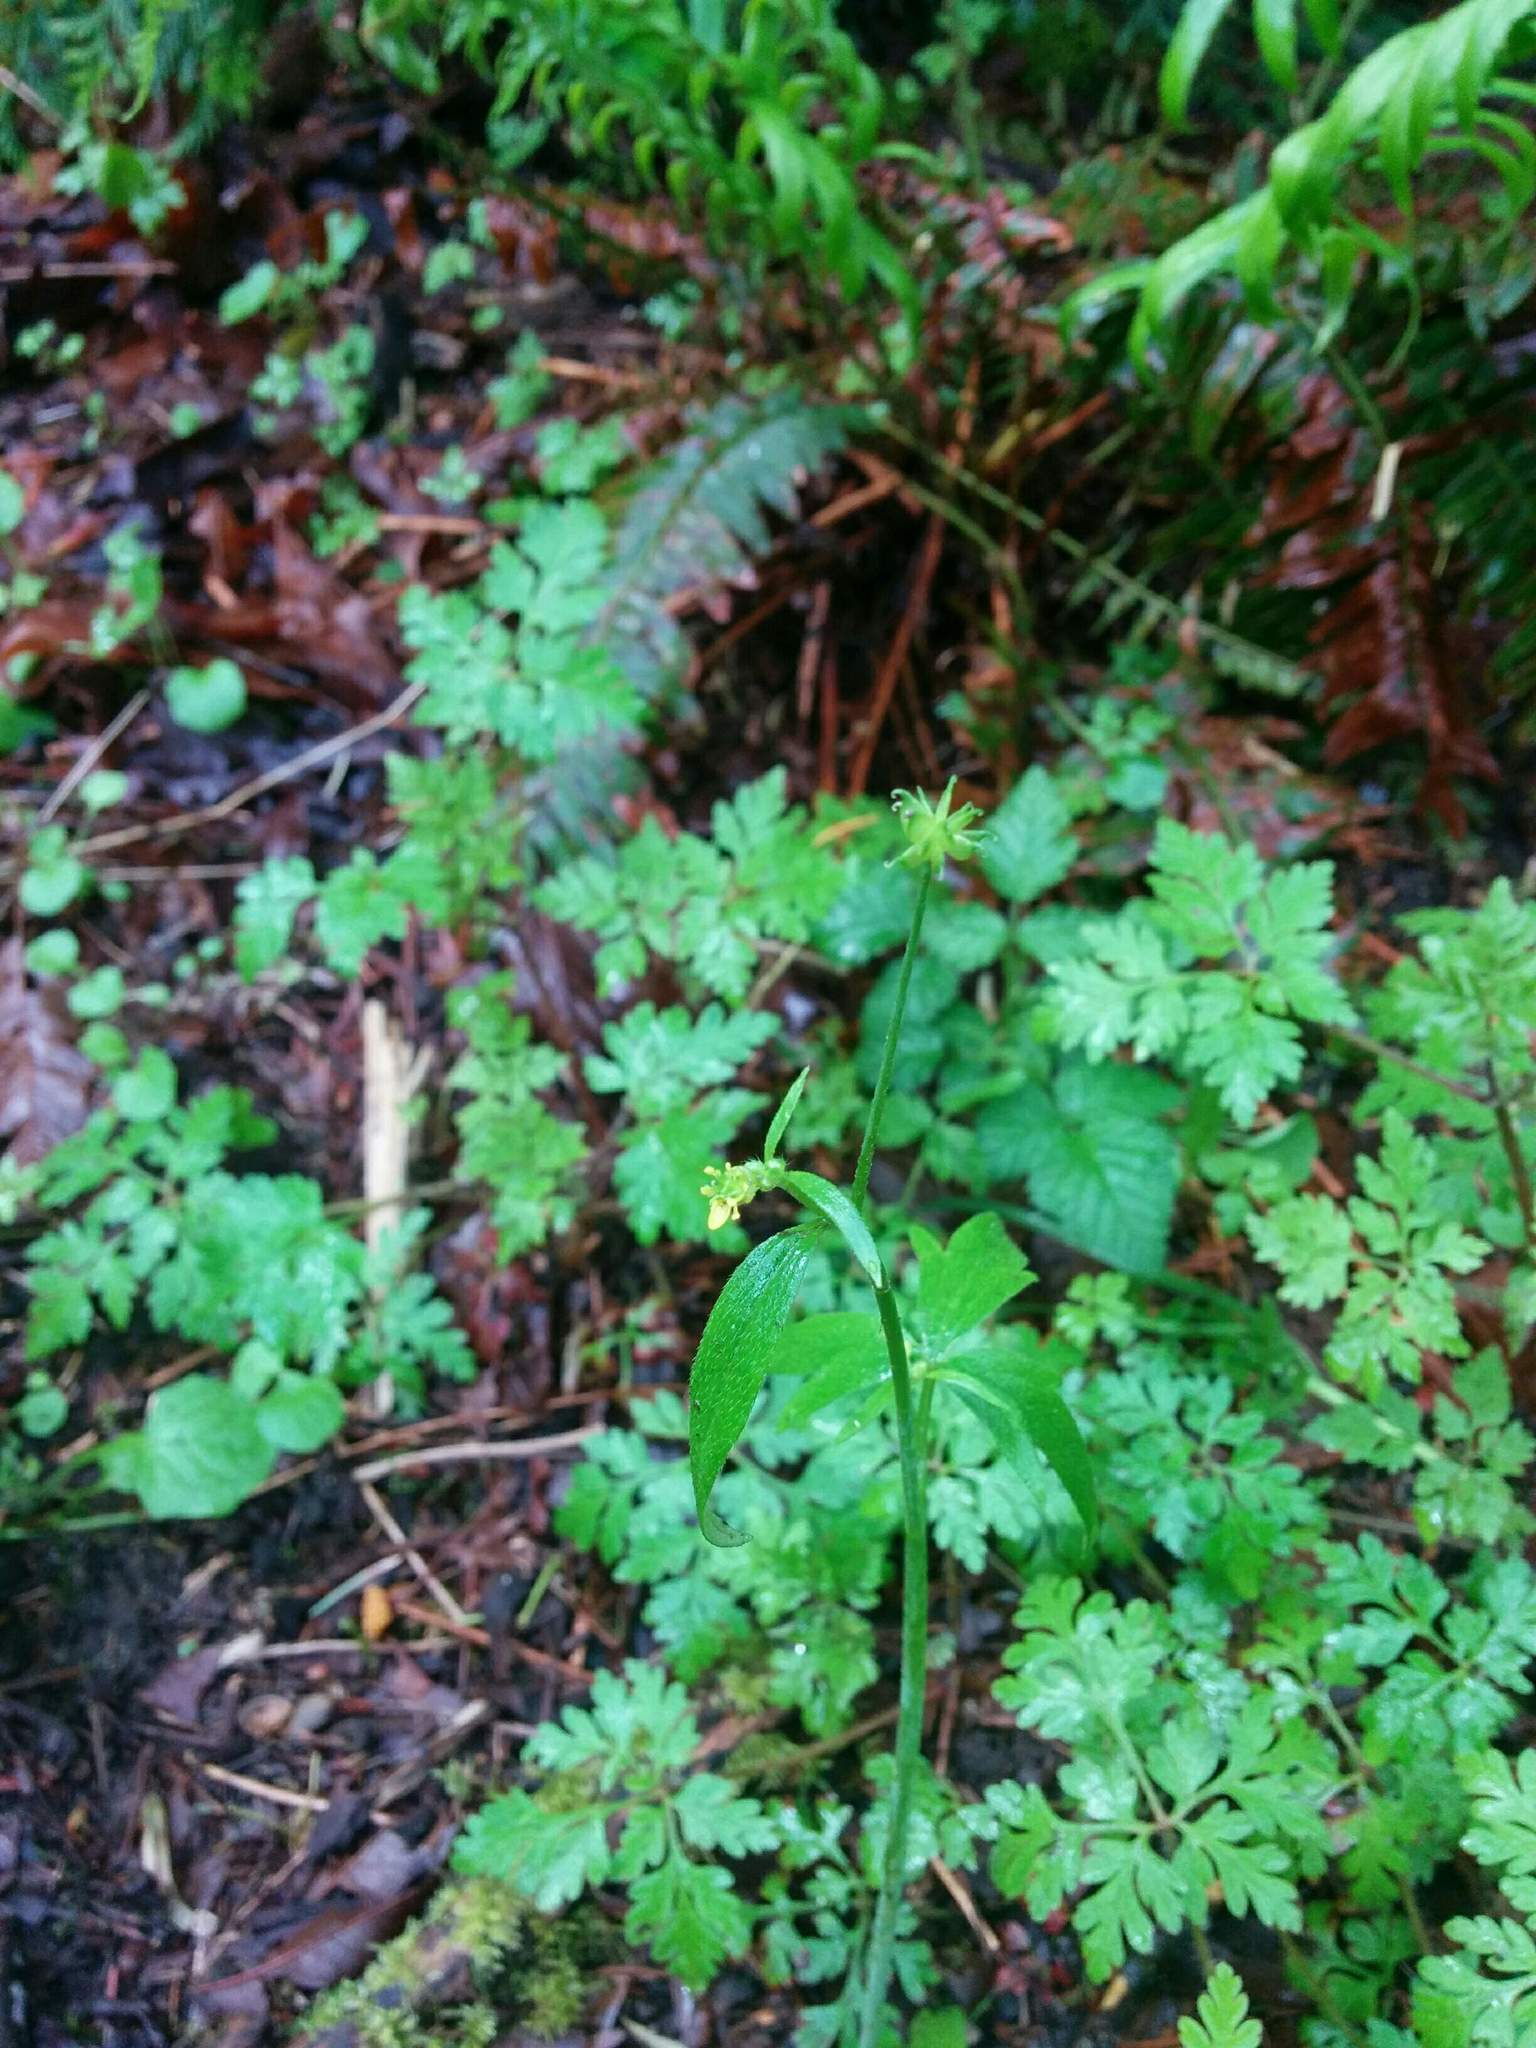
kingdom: Plantae
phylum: Tracheophyta
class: Magnoliopsida
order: Ranunculales
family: Ranunculaceae
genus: Ranunculus
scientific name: Ranunculus uncinatus
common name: Little buttercup
